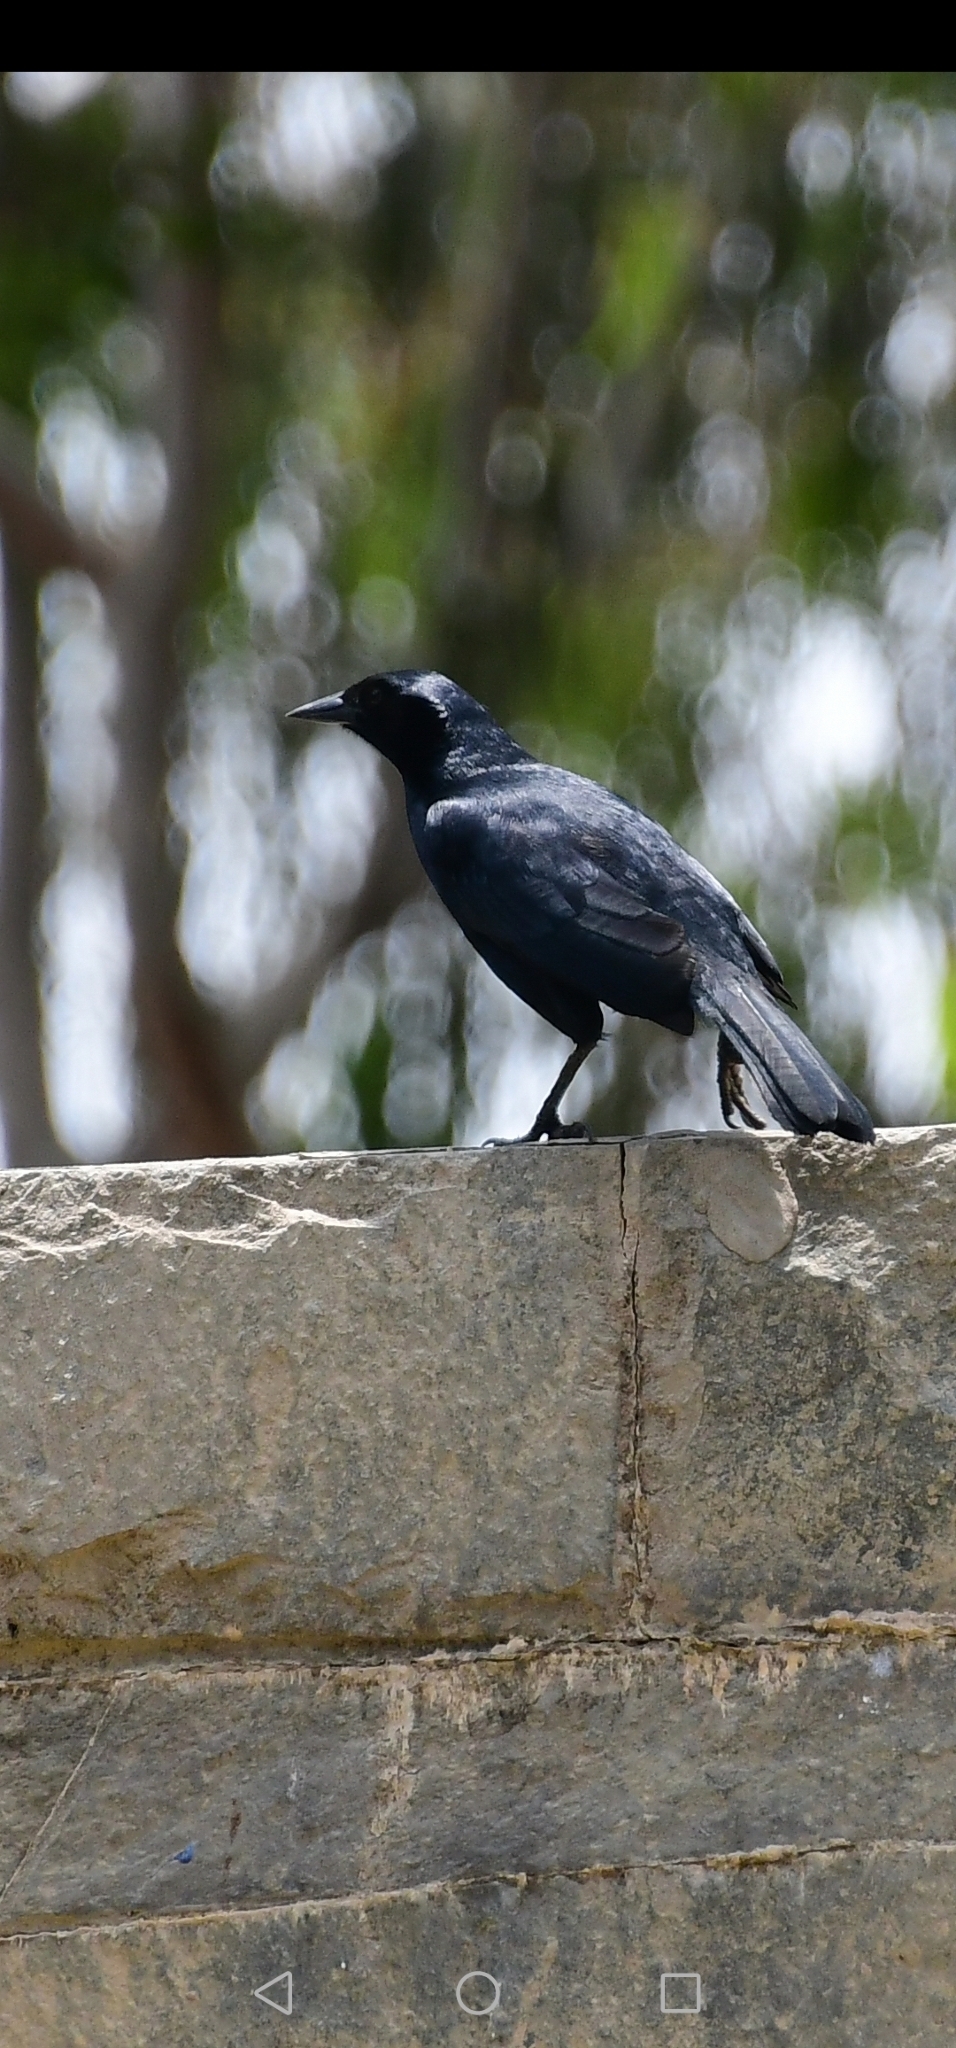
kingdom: Animalia
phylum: Chordata
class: Aves
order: Passeriformes
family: Icteridae
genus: Dives
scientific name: Dives warczewiczi
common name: Scrub blackbird
